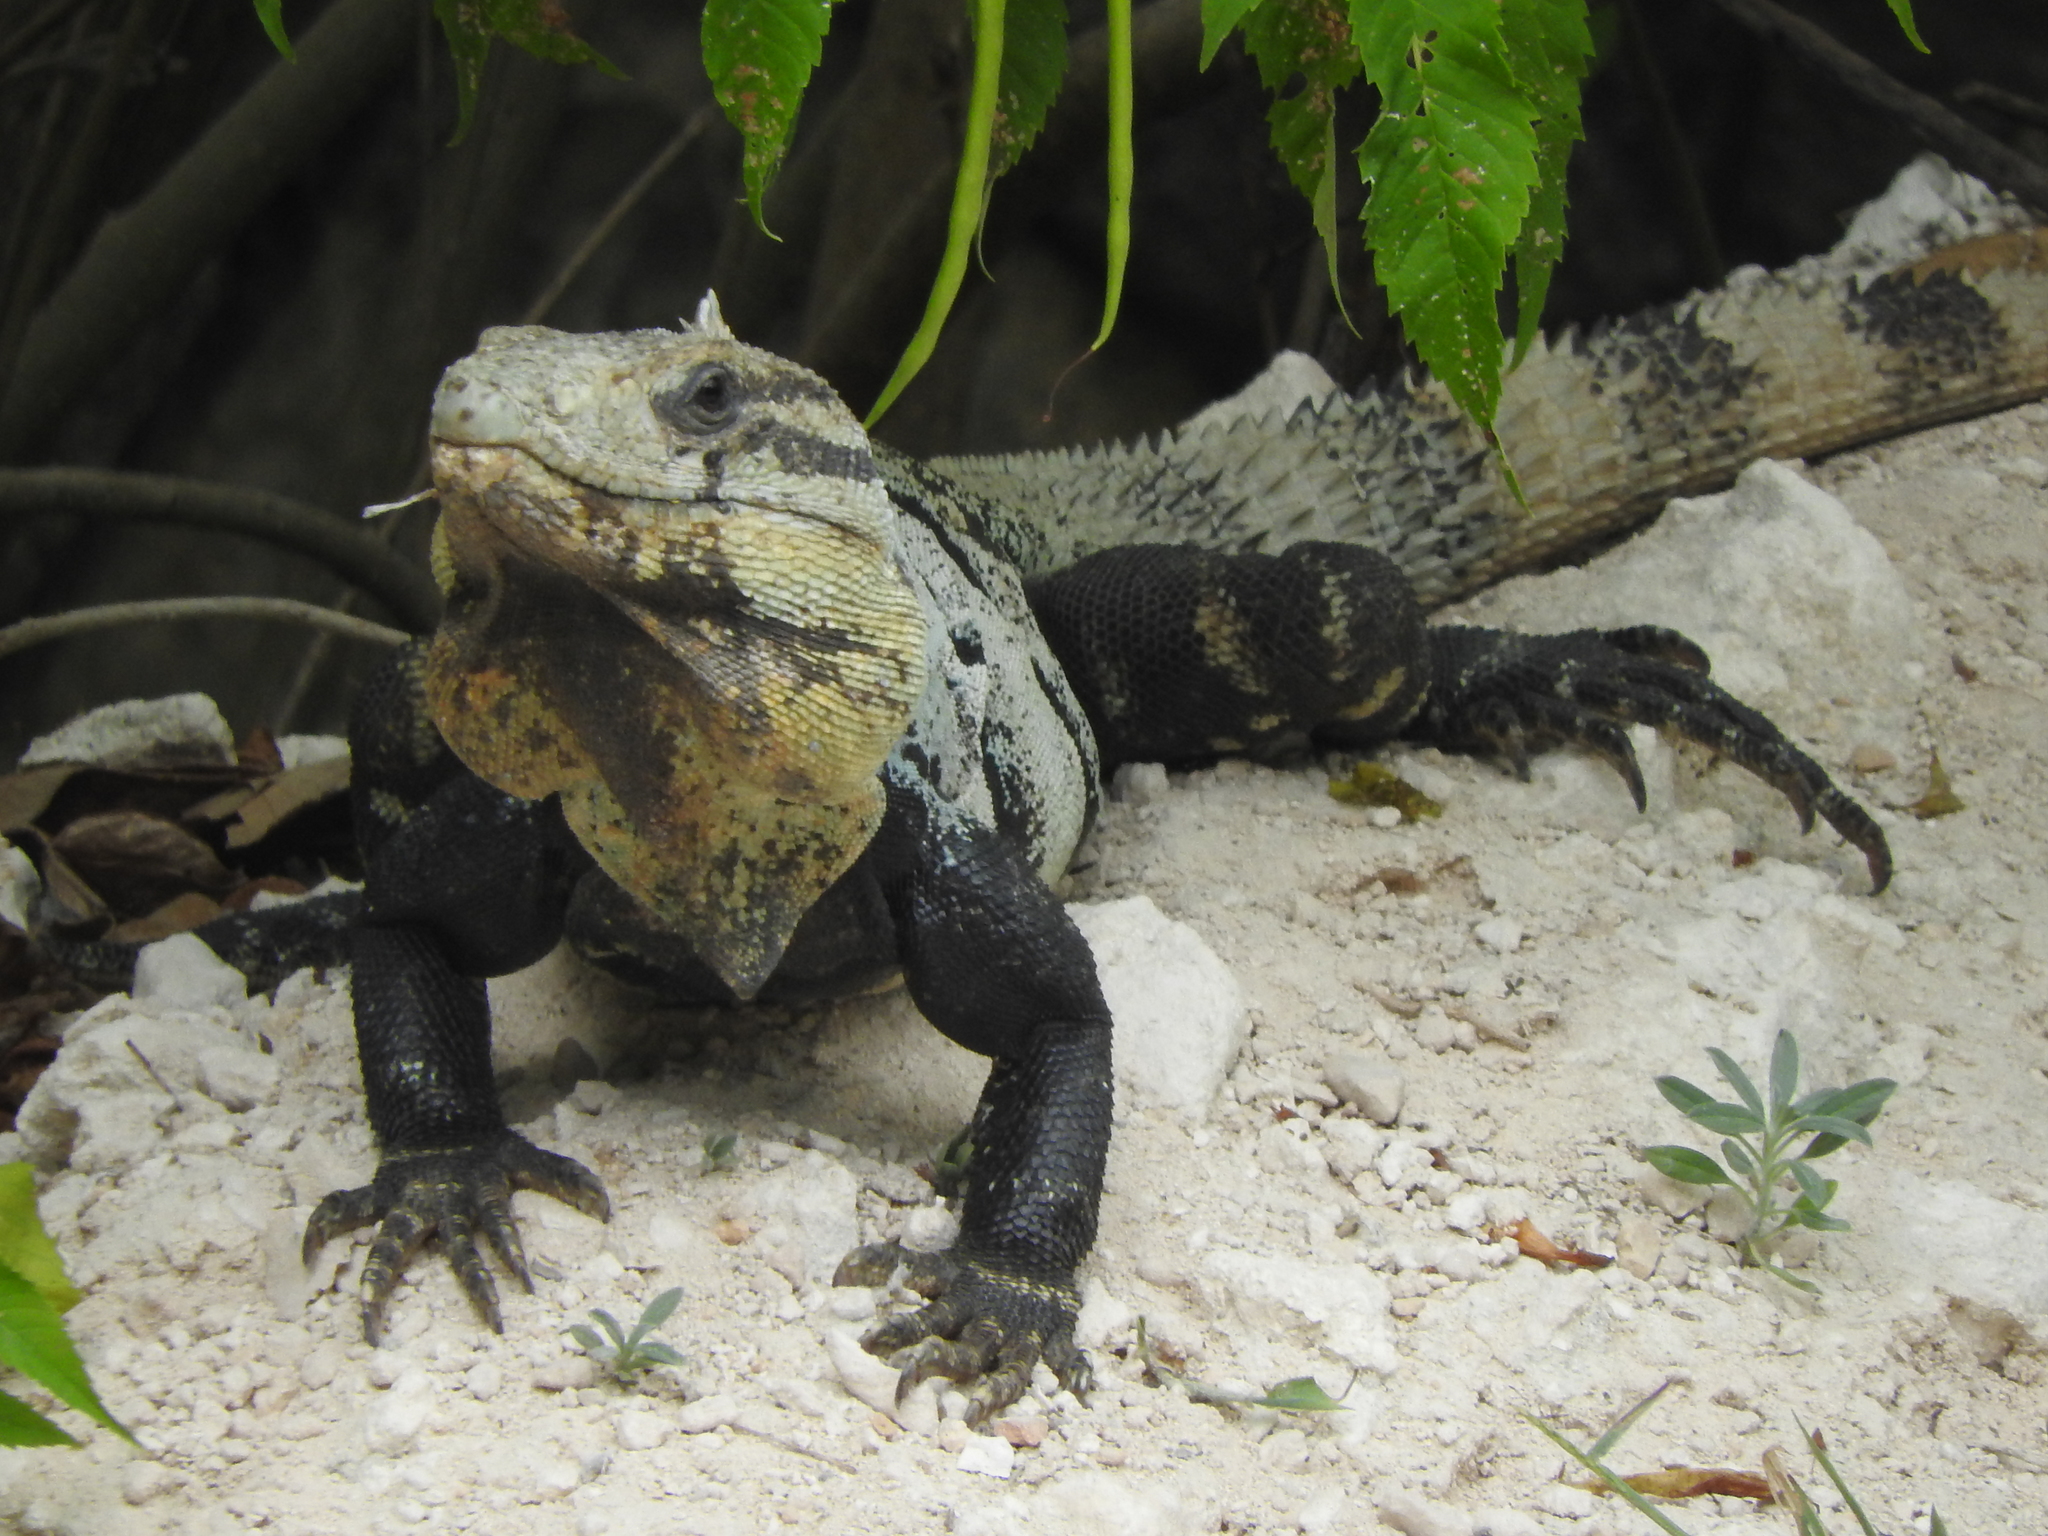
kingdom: Animalia
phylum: Chordata
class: Squamata
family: Iguanidae
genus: Ctenosaura
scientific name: Ctenosaura similis
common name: Black spiny-tailed iguana
